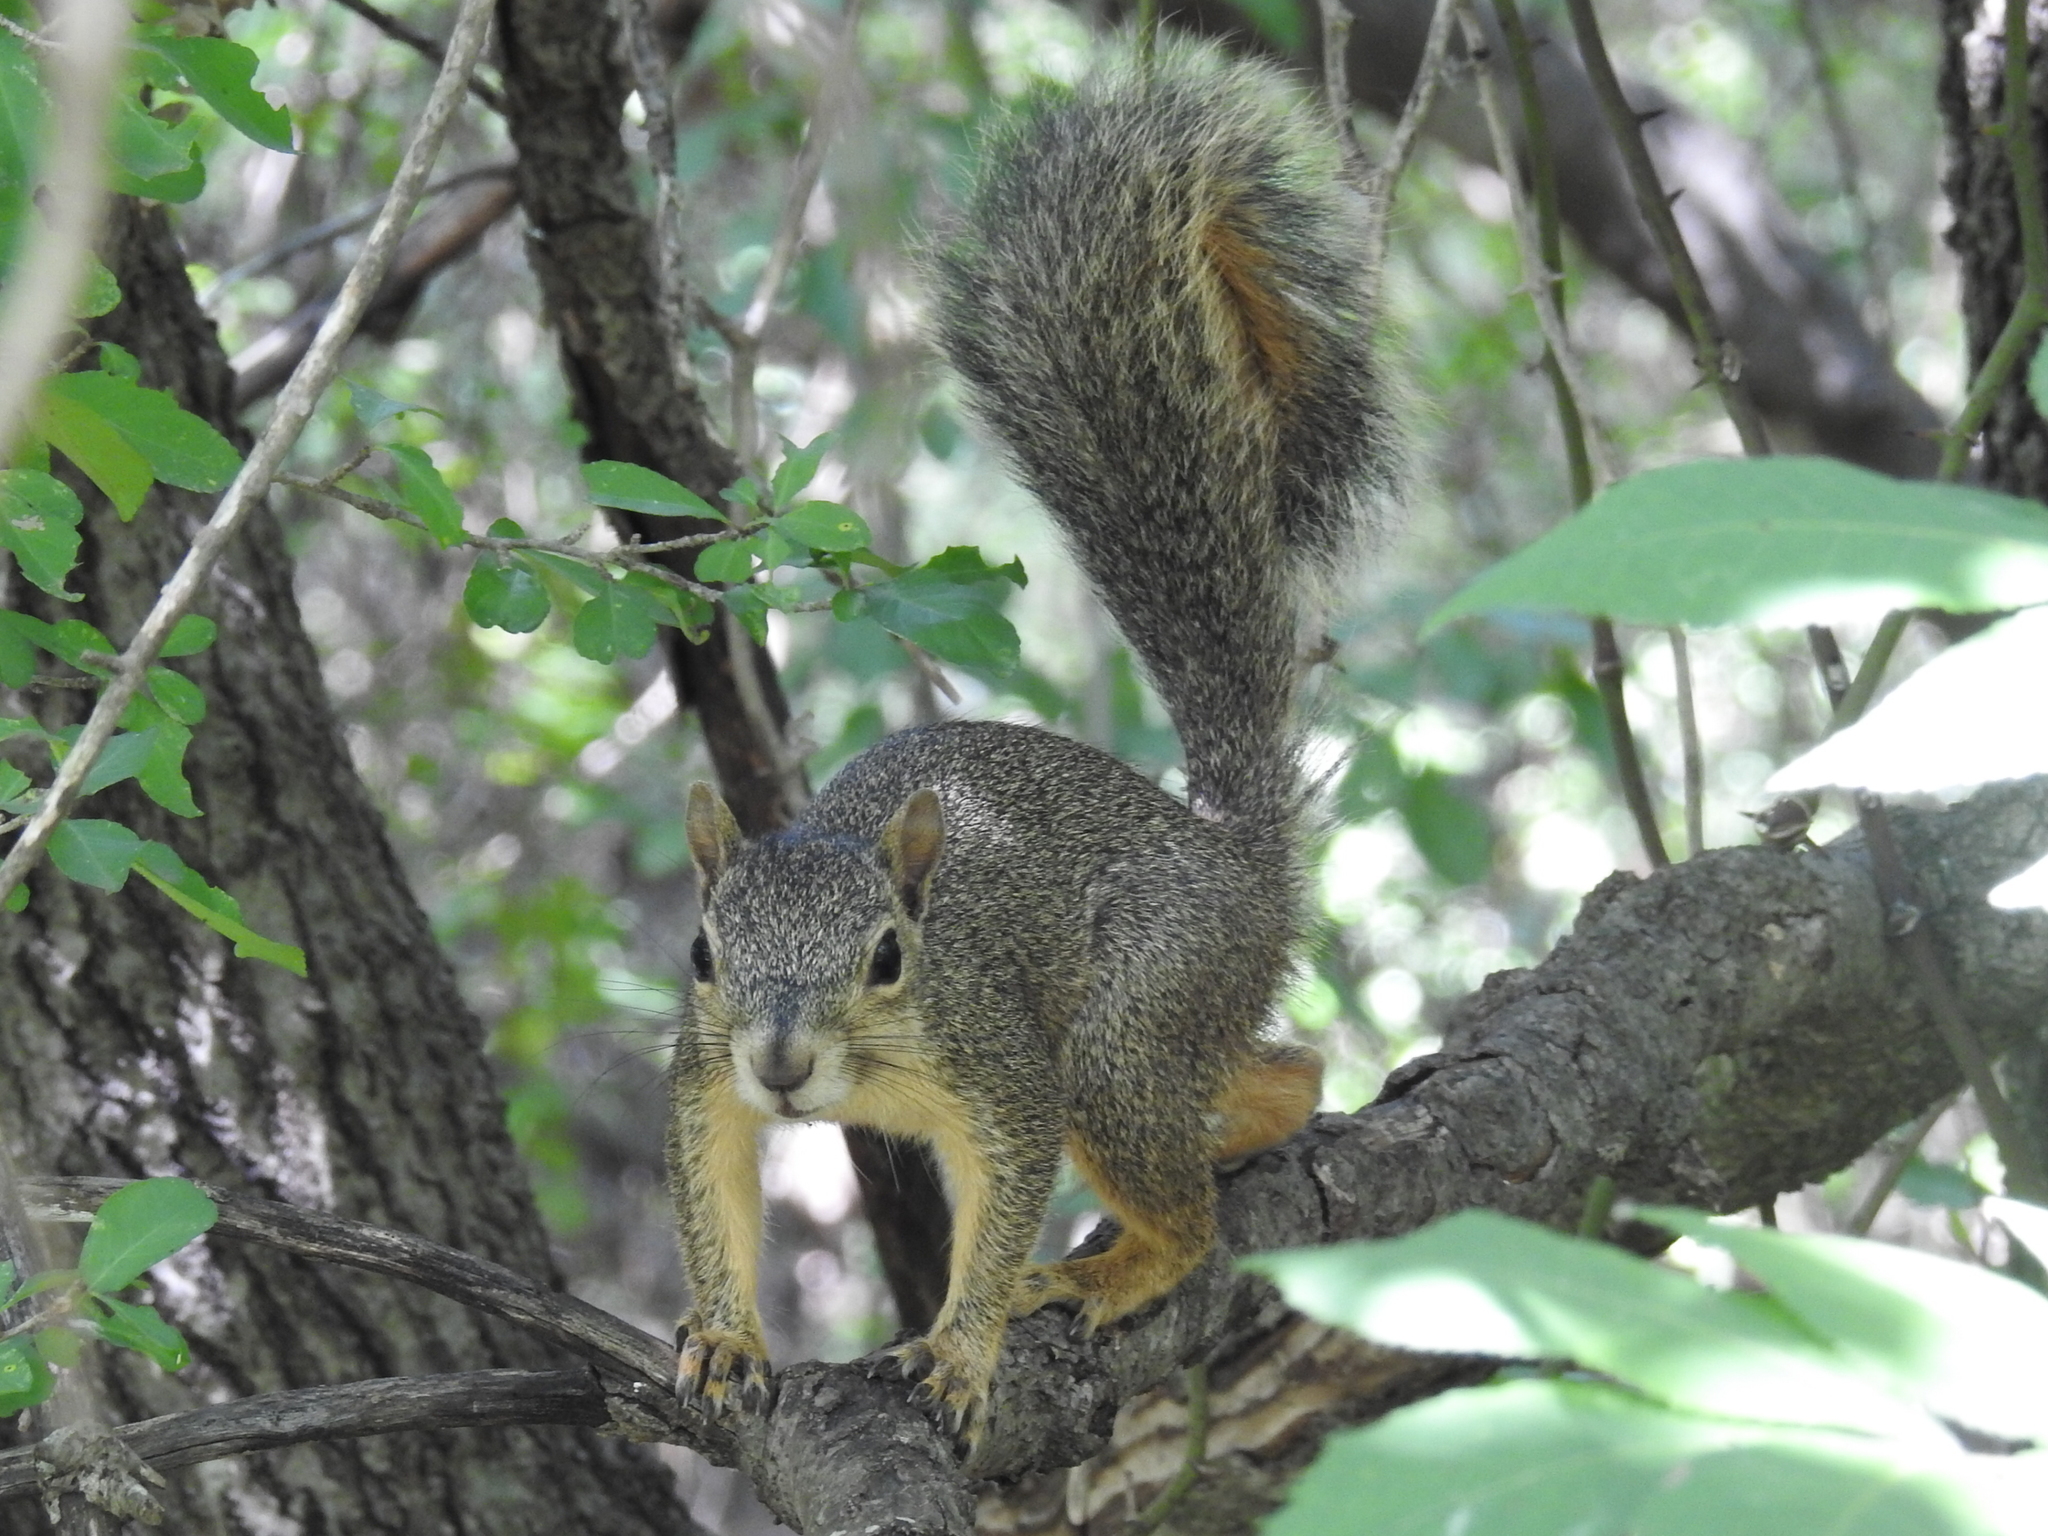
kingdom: Animalia
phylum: Chordata
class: Mammalia
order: Rodentia
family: Sciuridae
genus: Sciurus
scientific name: Sciurus niger
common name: Fox squirrel
